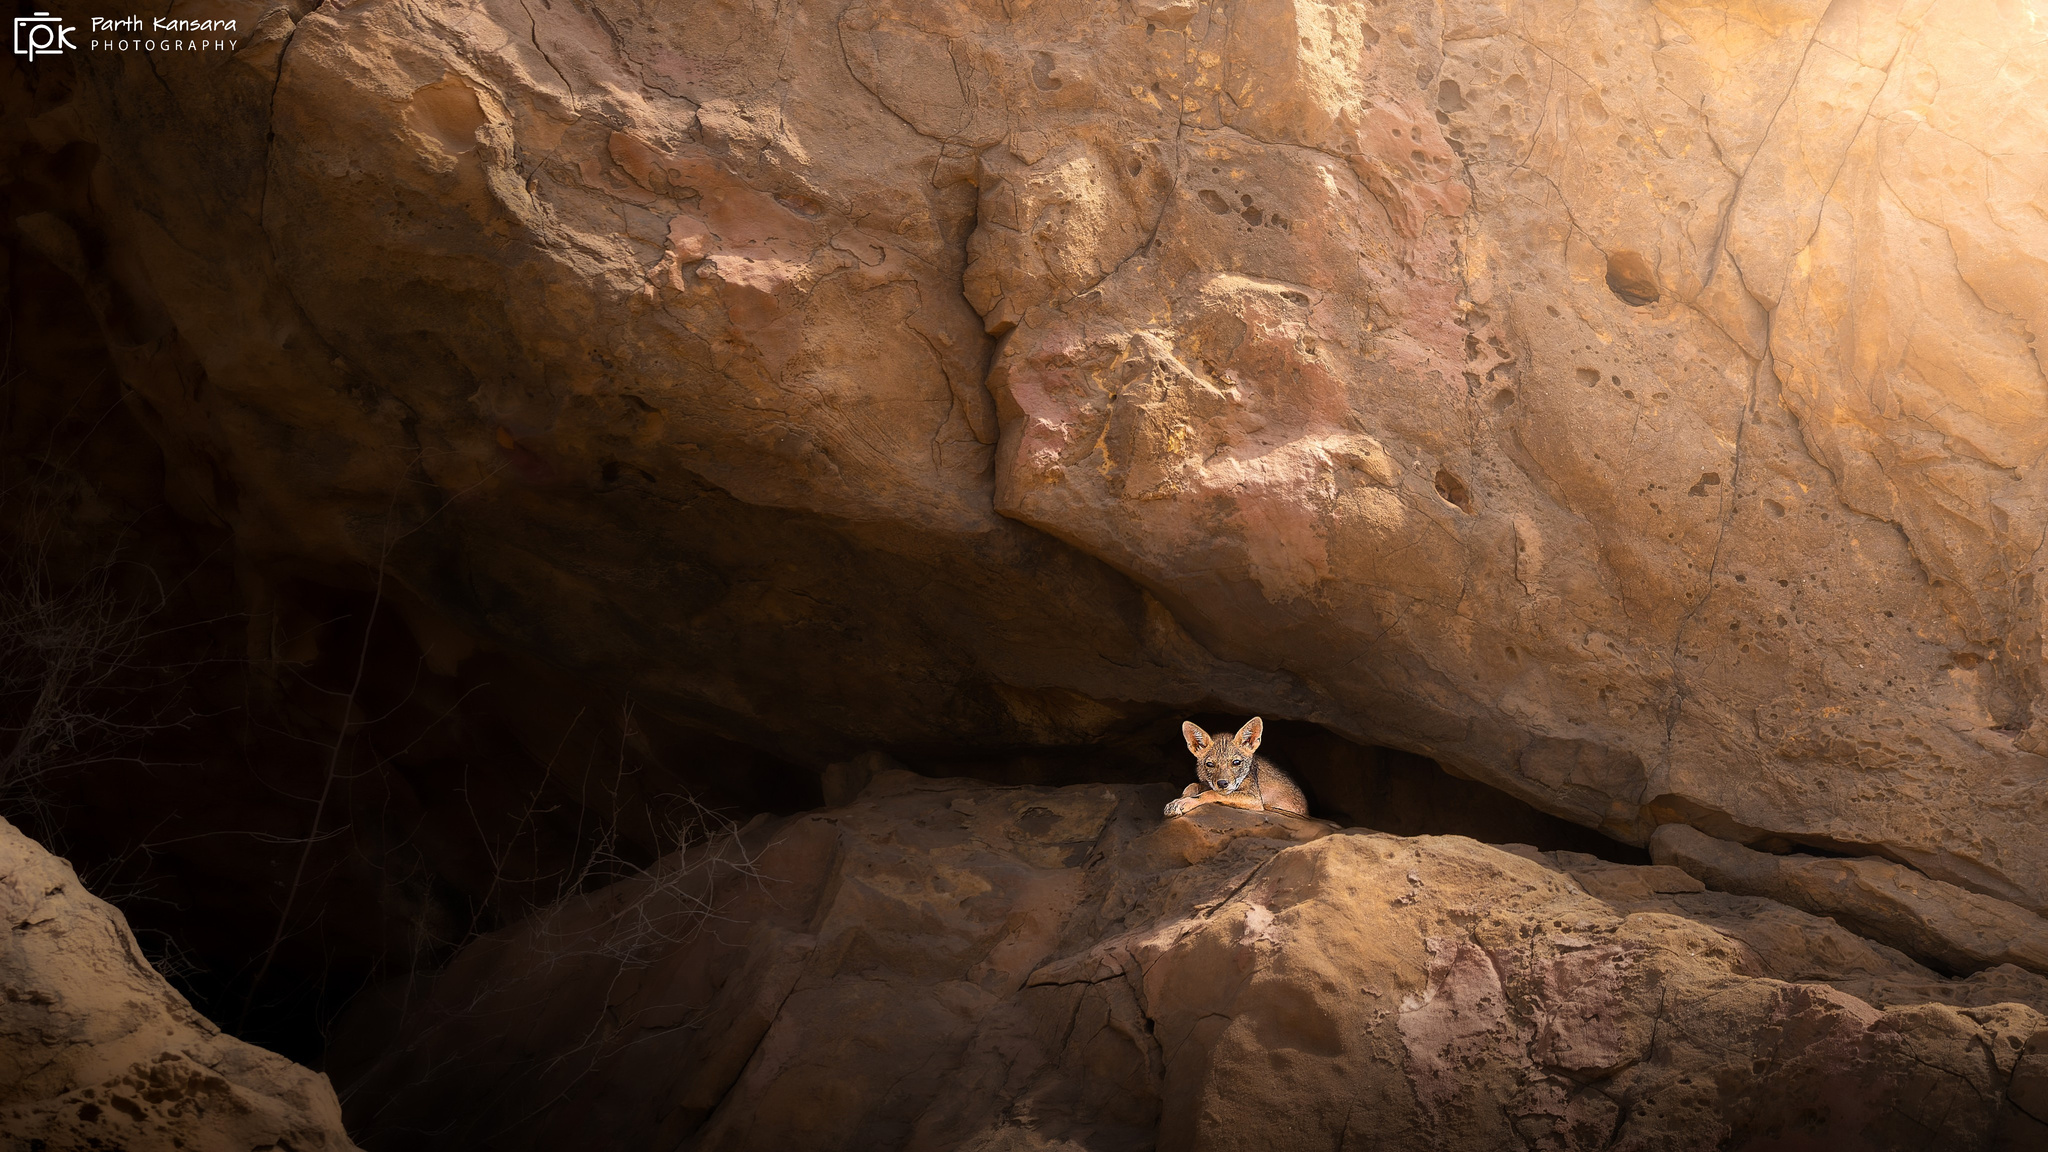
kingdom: Animalia
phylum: Chordata
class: Mammalia
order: Carnivora
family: Canidae
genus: Canis
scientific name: Canis aureus
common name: Golden jackal
